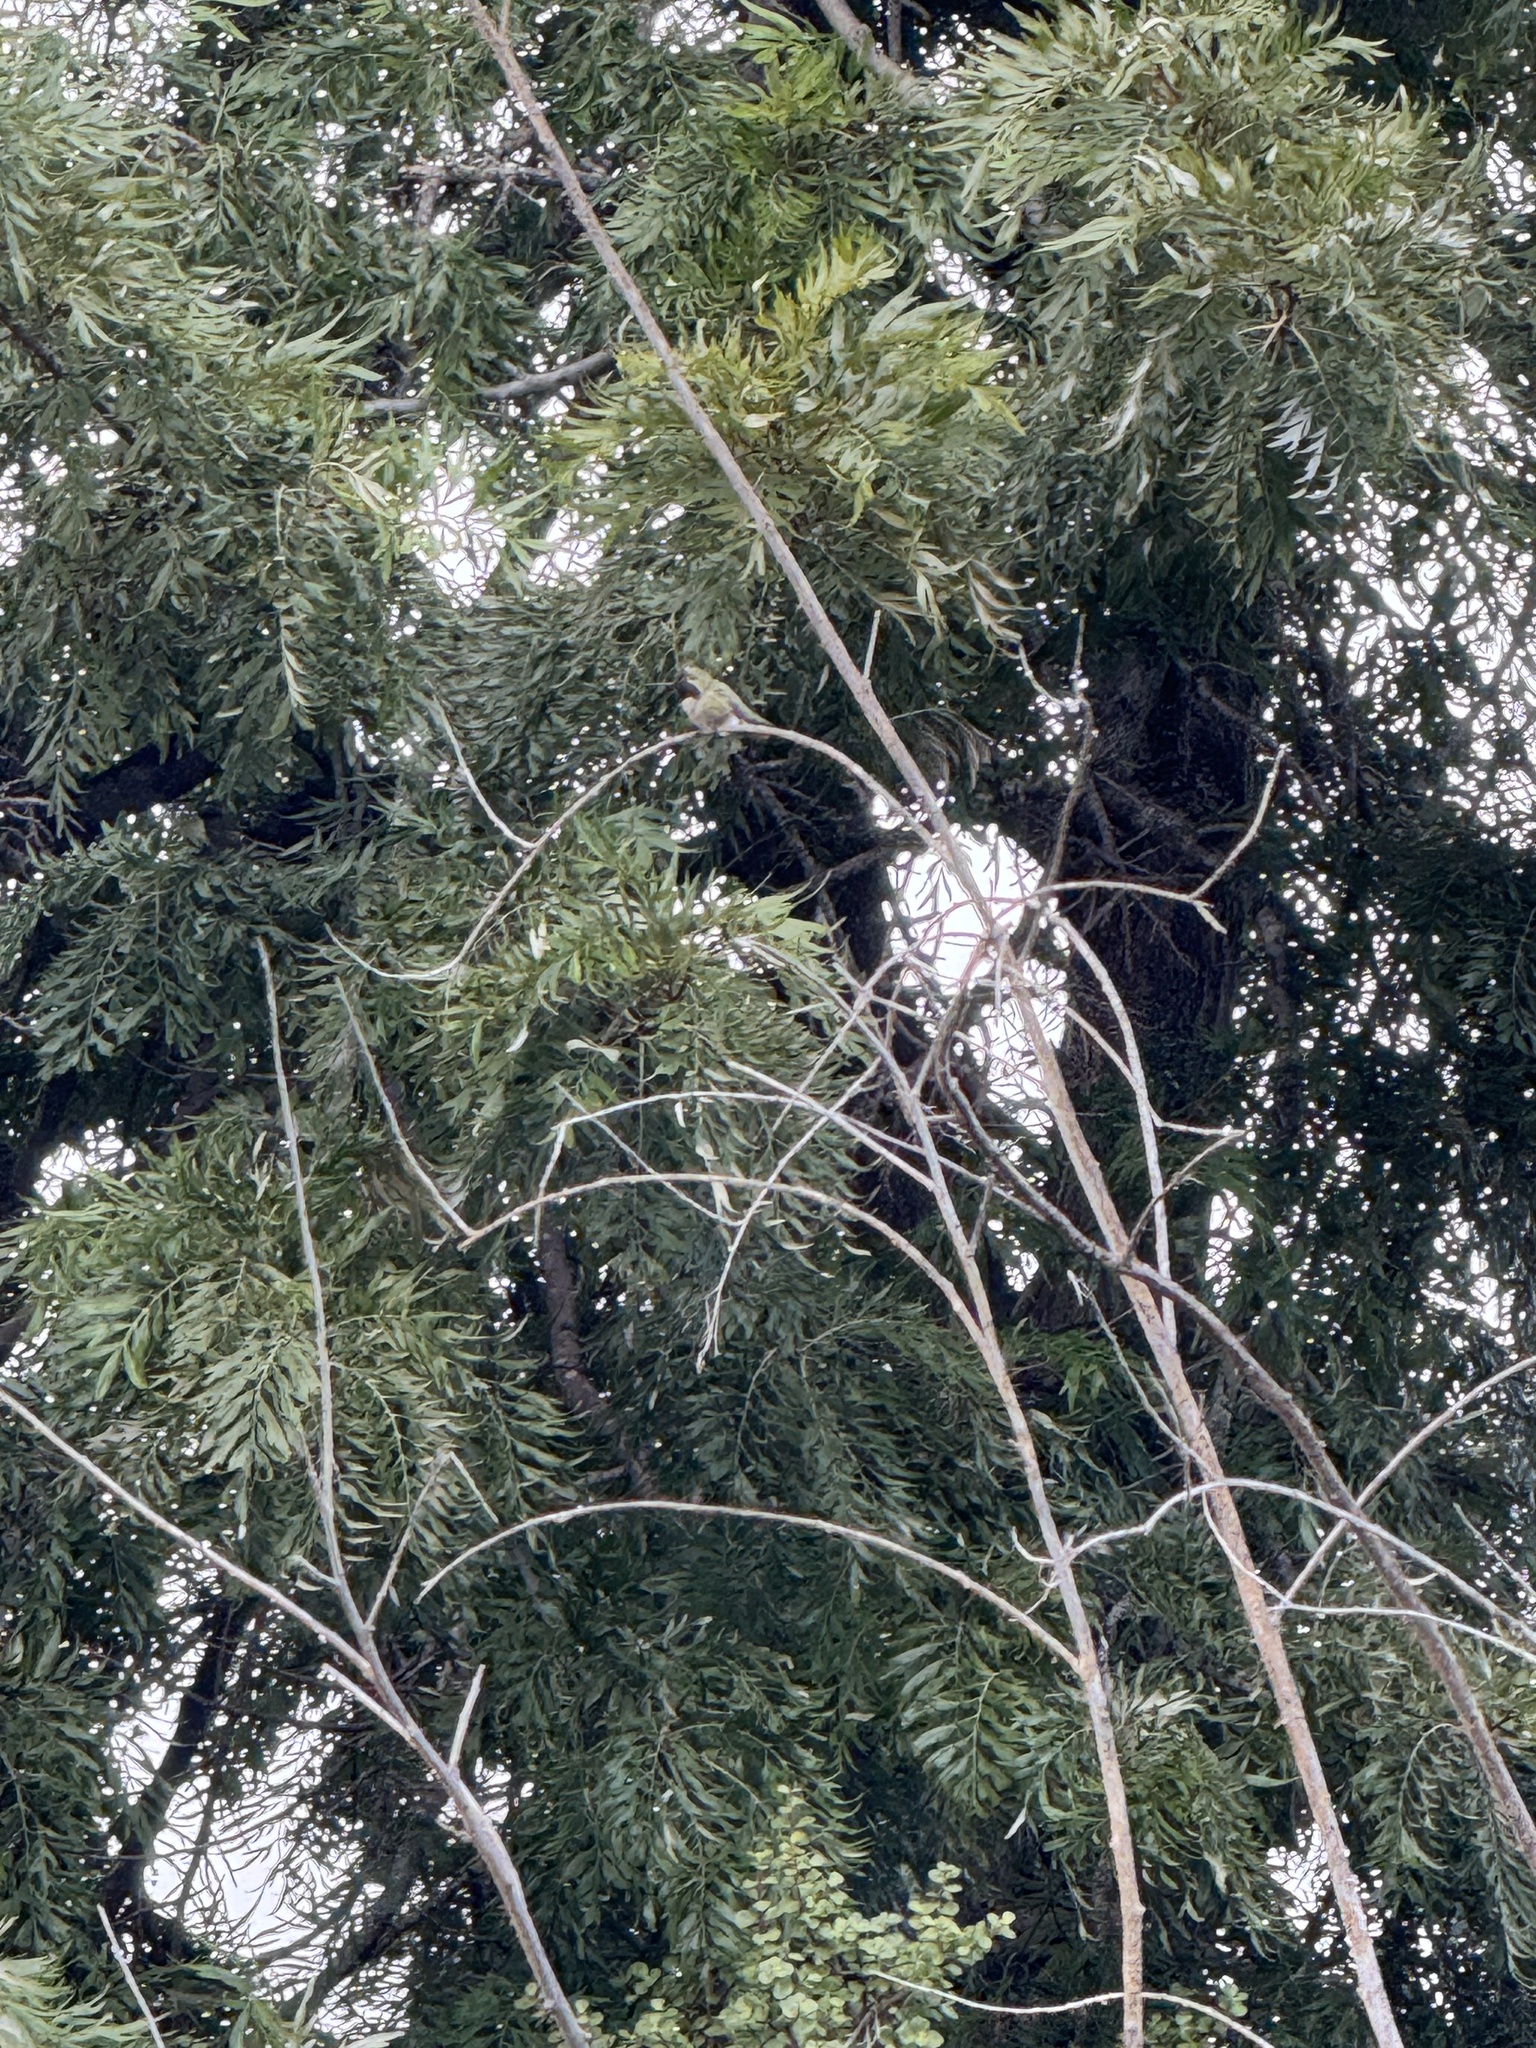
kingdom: Animalia
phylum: Chordata
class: Aves
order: Apodiformes
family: Trochilidae
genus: Calypte
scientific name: Calypte anna
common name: Anna's hummingbird
